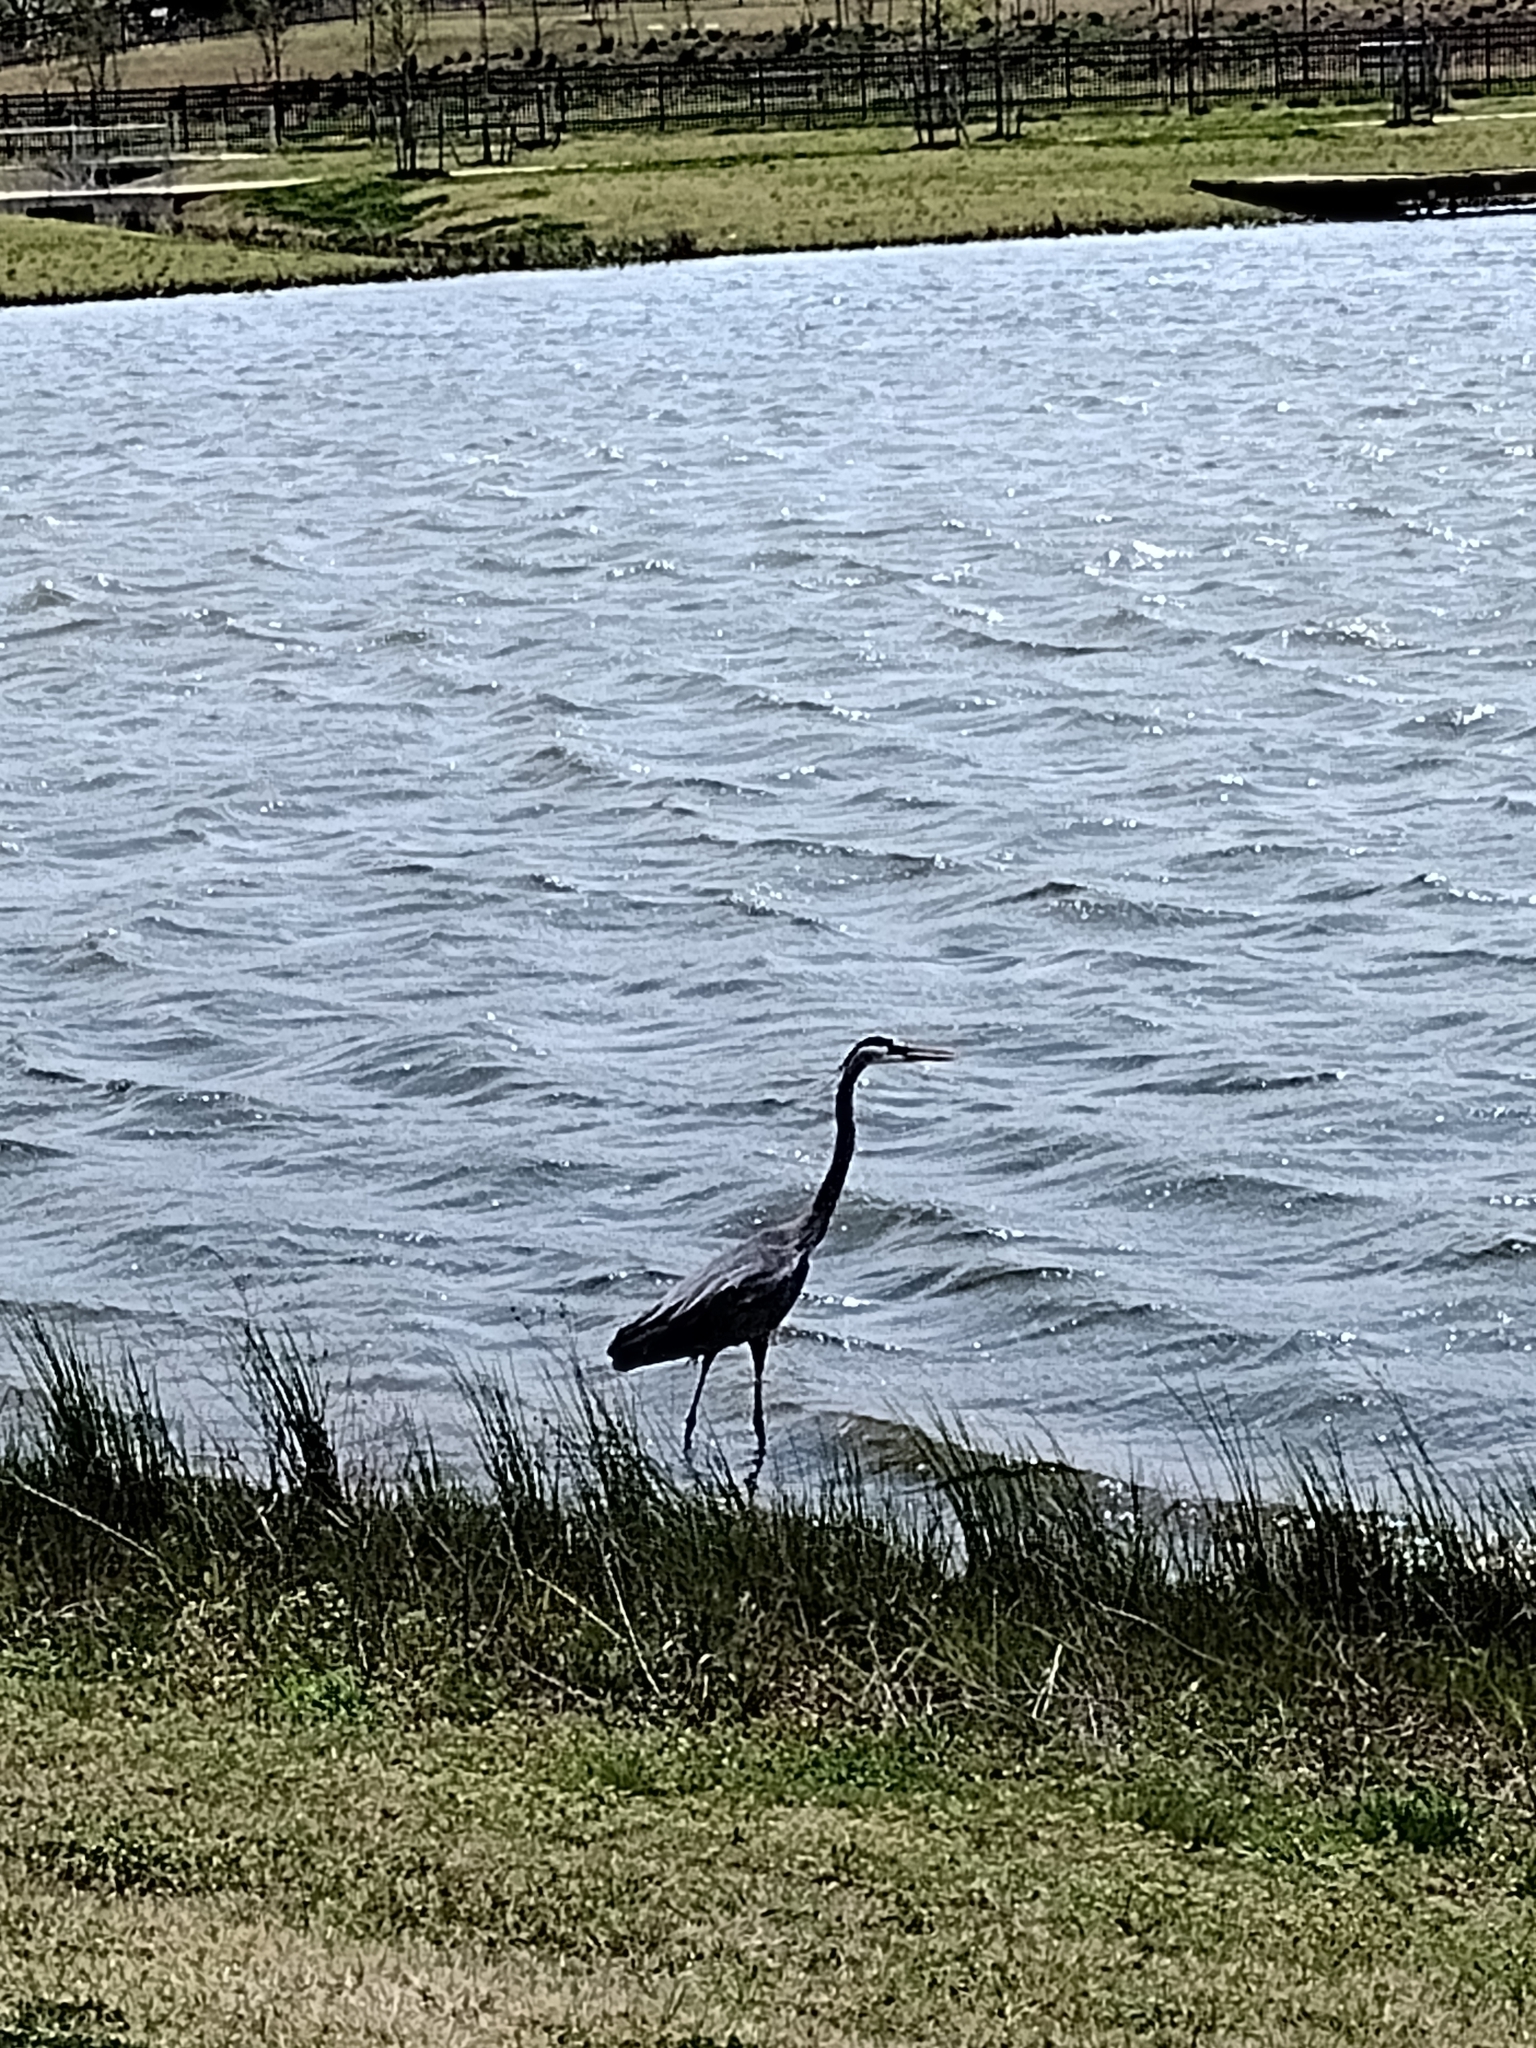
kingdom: Animalia
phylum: Chordata
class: Aves
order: Pelecaniformes
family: Ardeidae
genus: Ardea
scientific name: Ardea herodias
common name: Great blue heron
